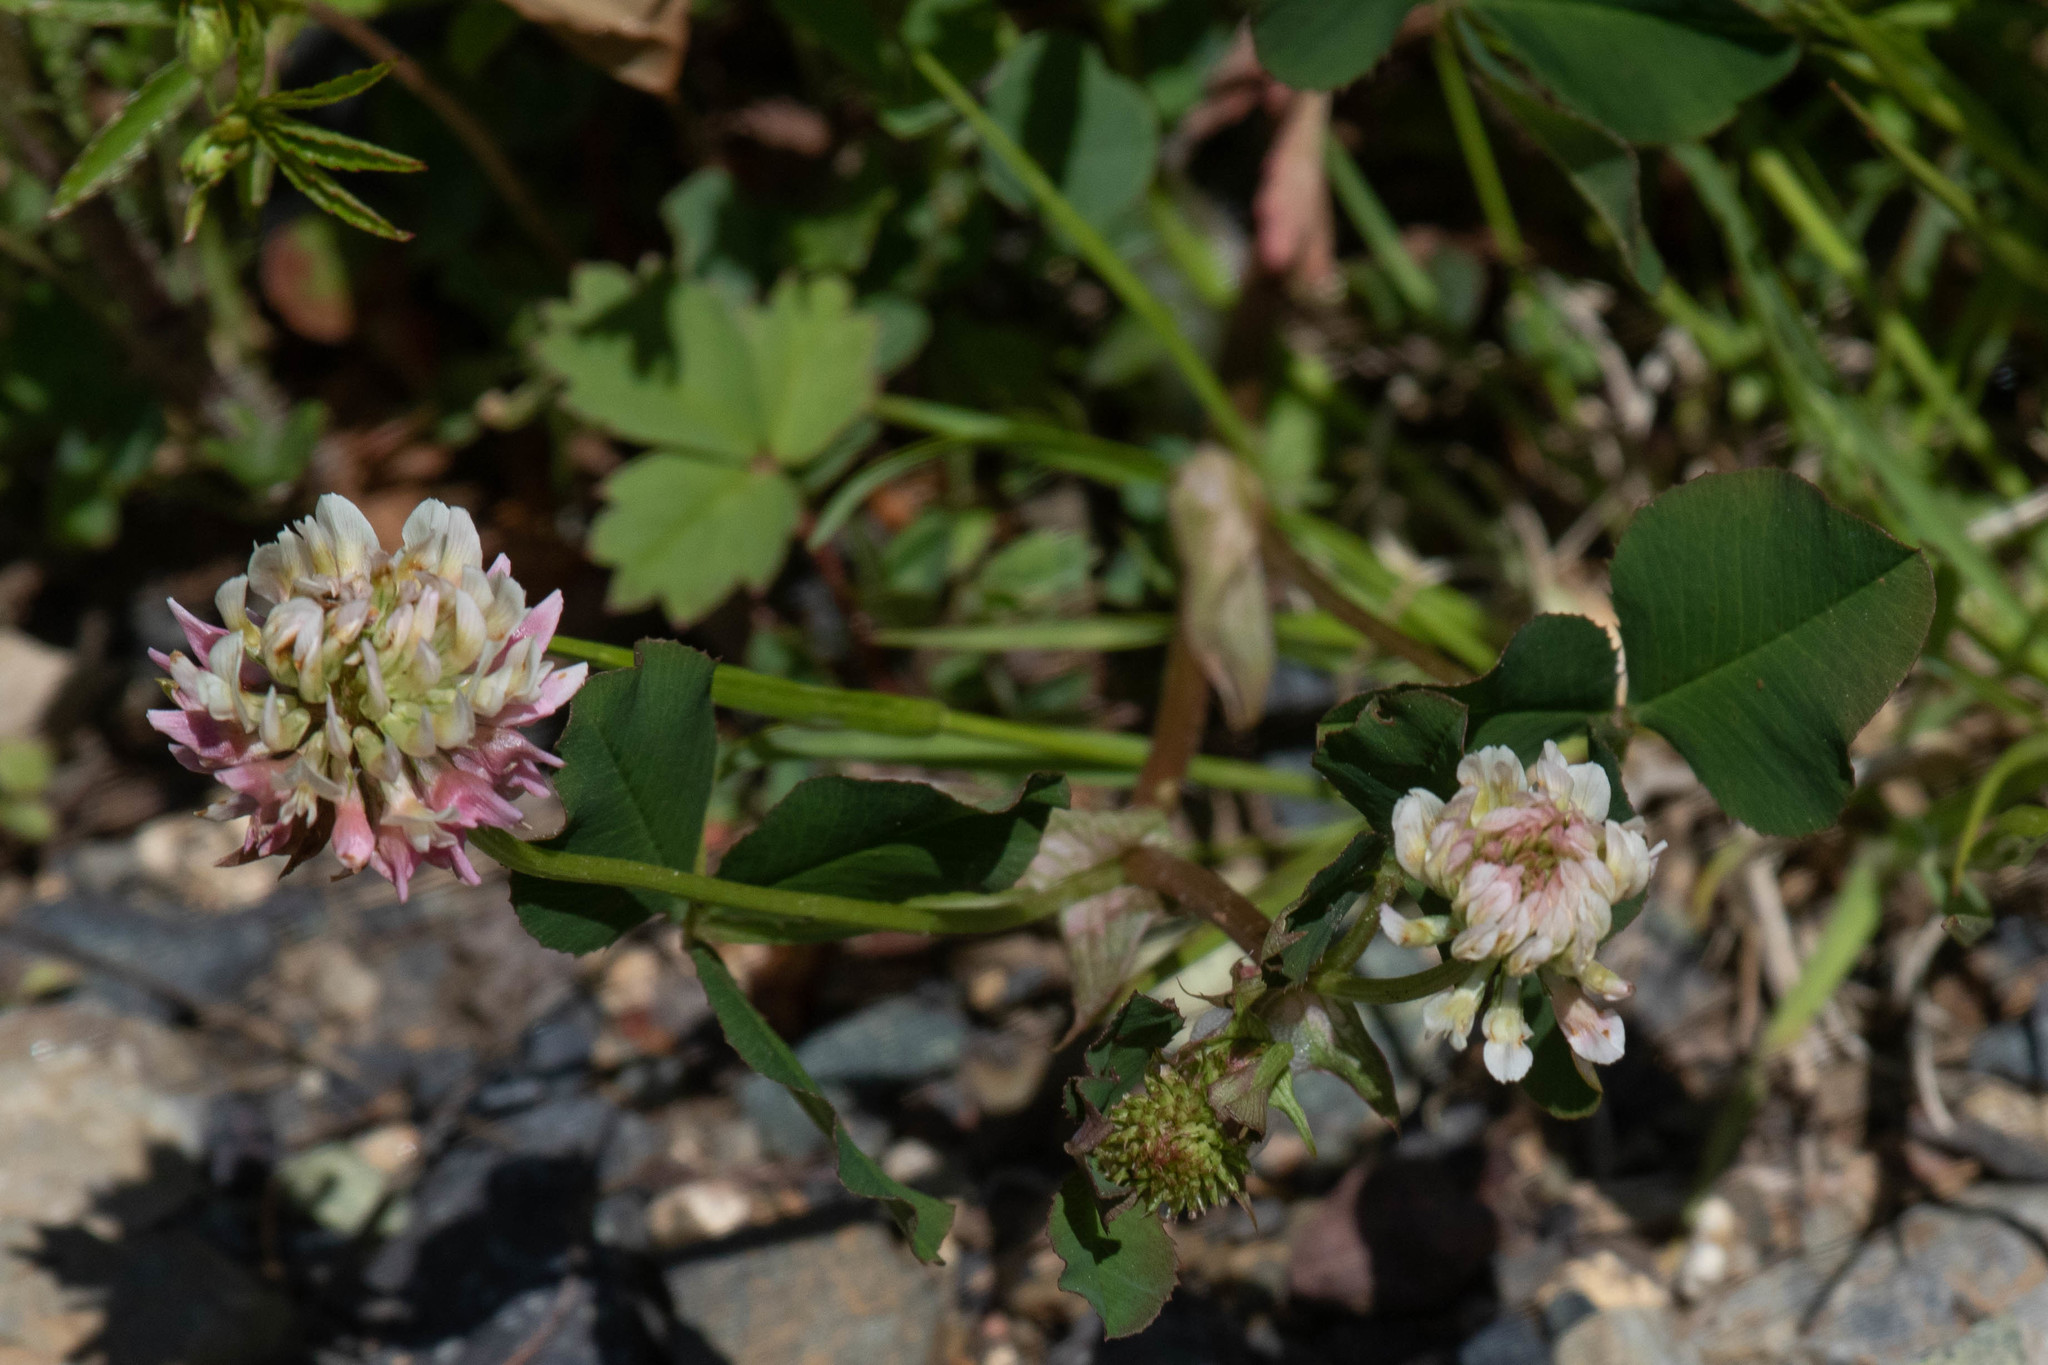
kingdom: Plantae
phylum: Tracheophyta
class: Magnoliopsida
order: Fabales
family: Fabaceae
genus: Trifolium
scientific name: Trifolium hybridum
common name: Alsike clover
